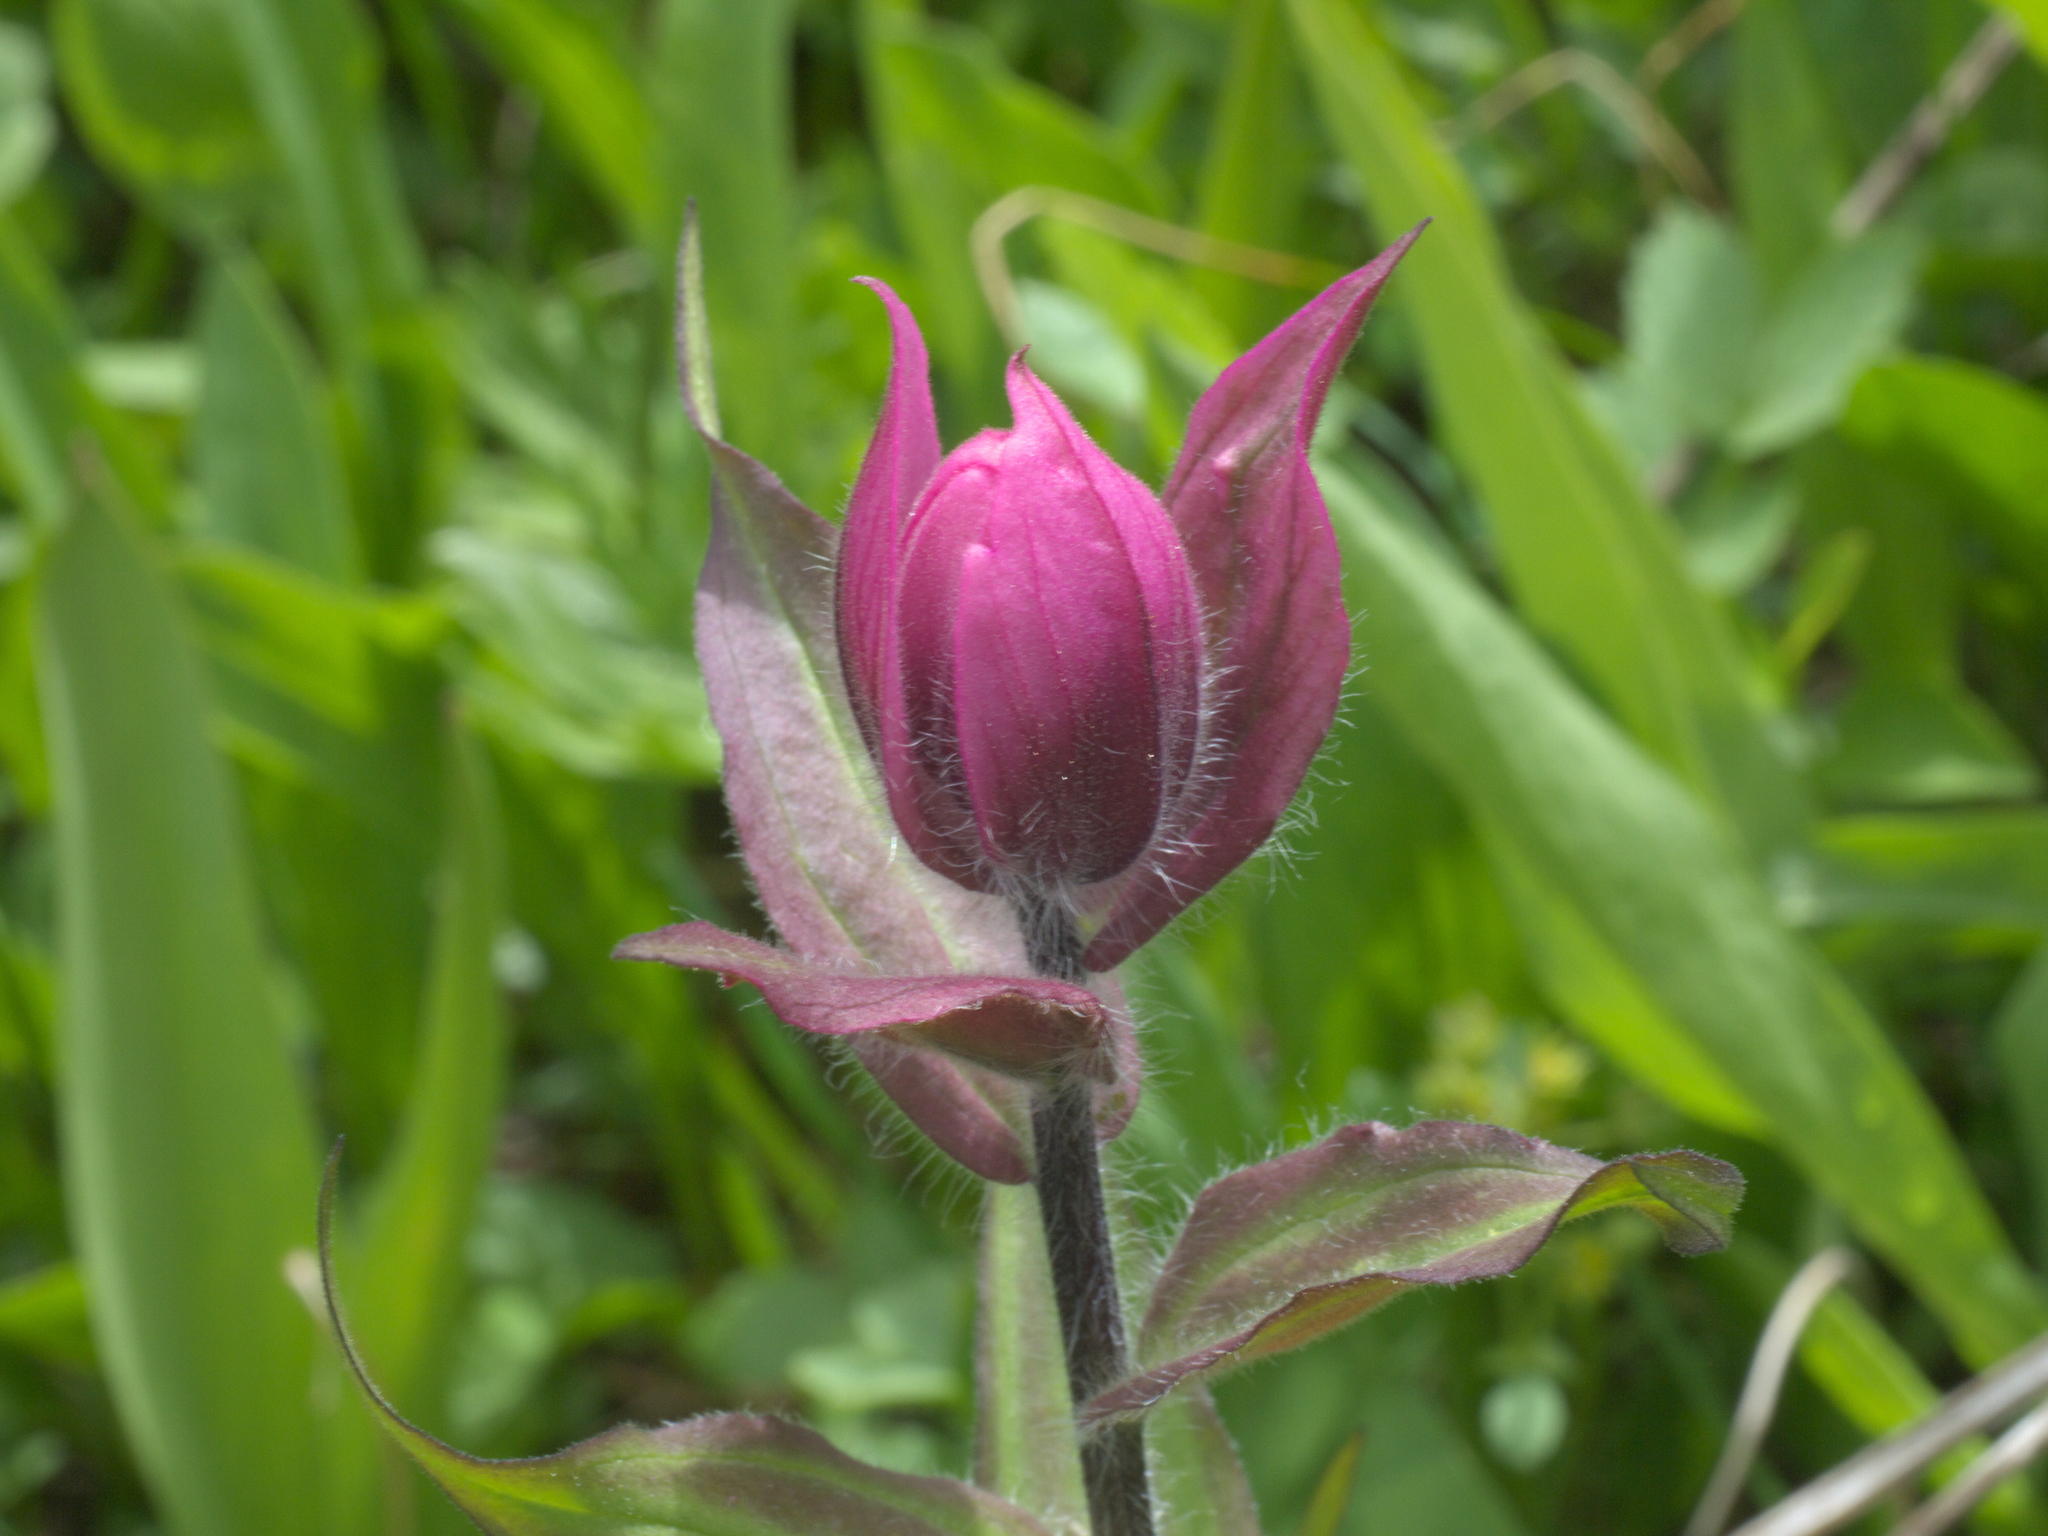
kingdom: Plantae
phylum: Tracheophyta
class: Magnoliopsida
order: Lamiales
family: Orobanchaceae
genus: Castilleja
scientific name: Castilleja rhexifolia
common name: Rocky mountain paintbrush
